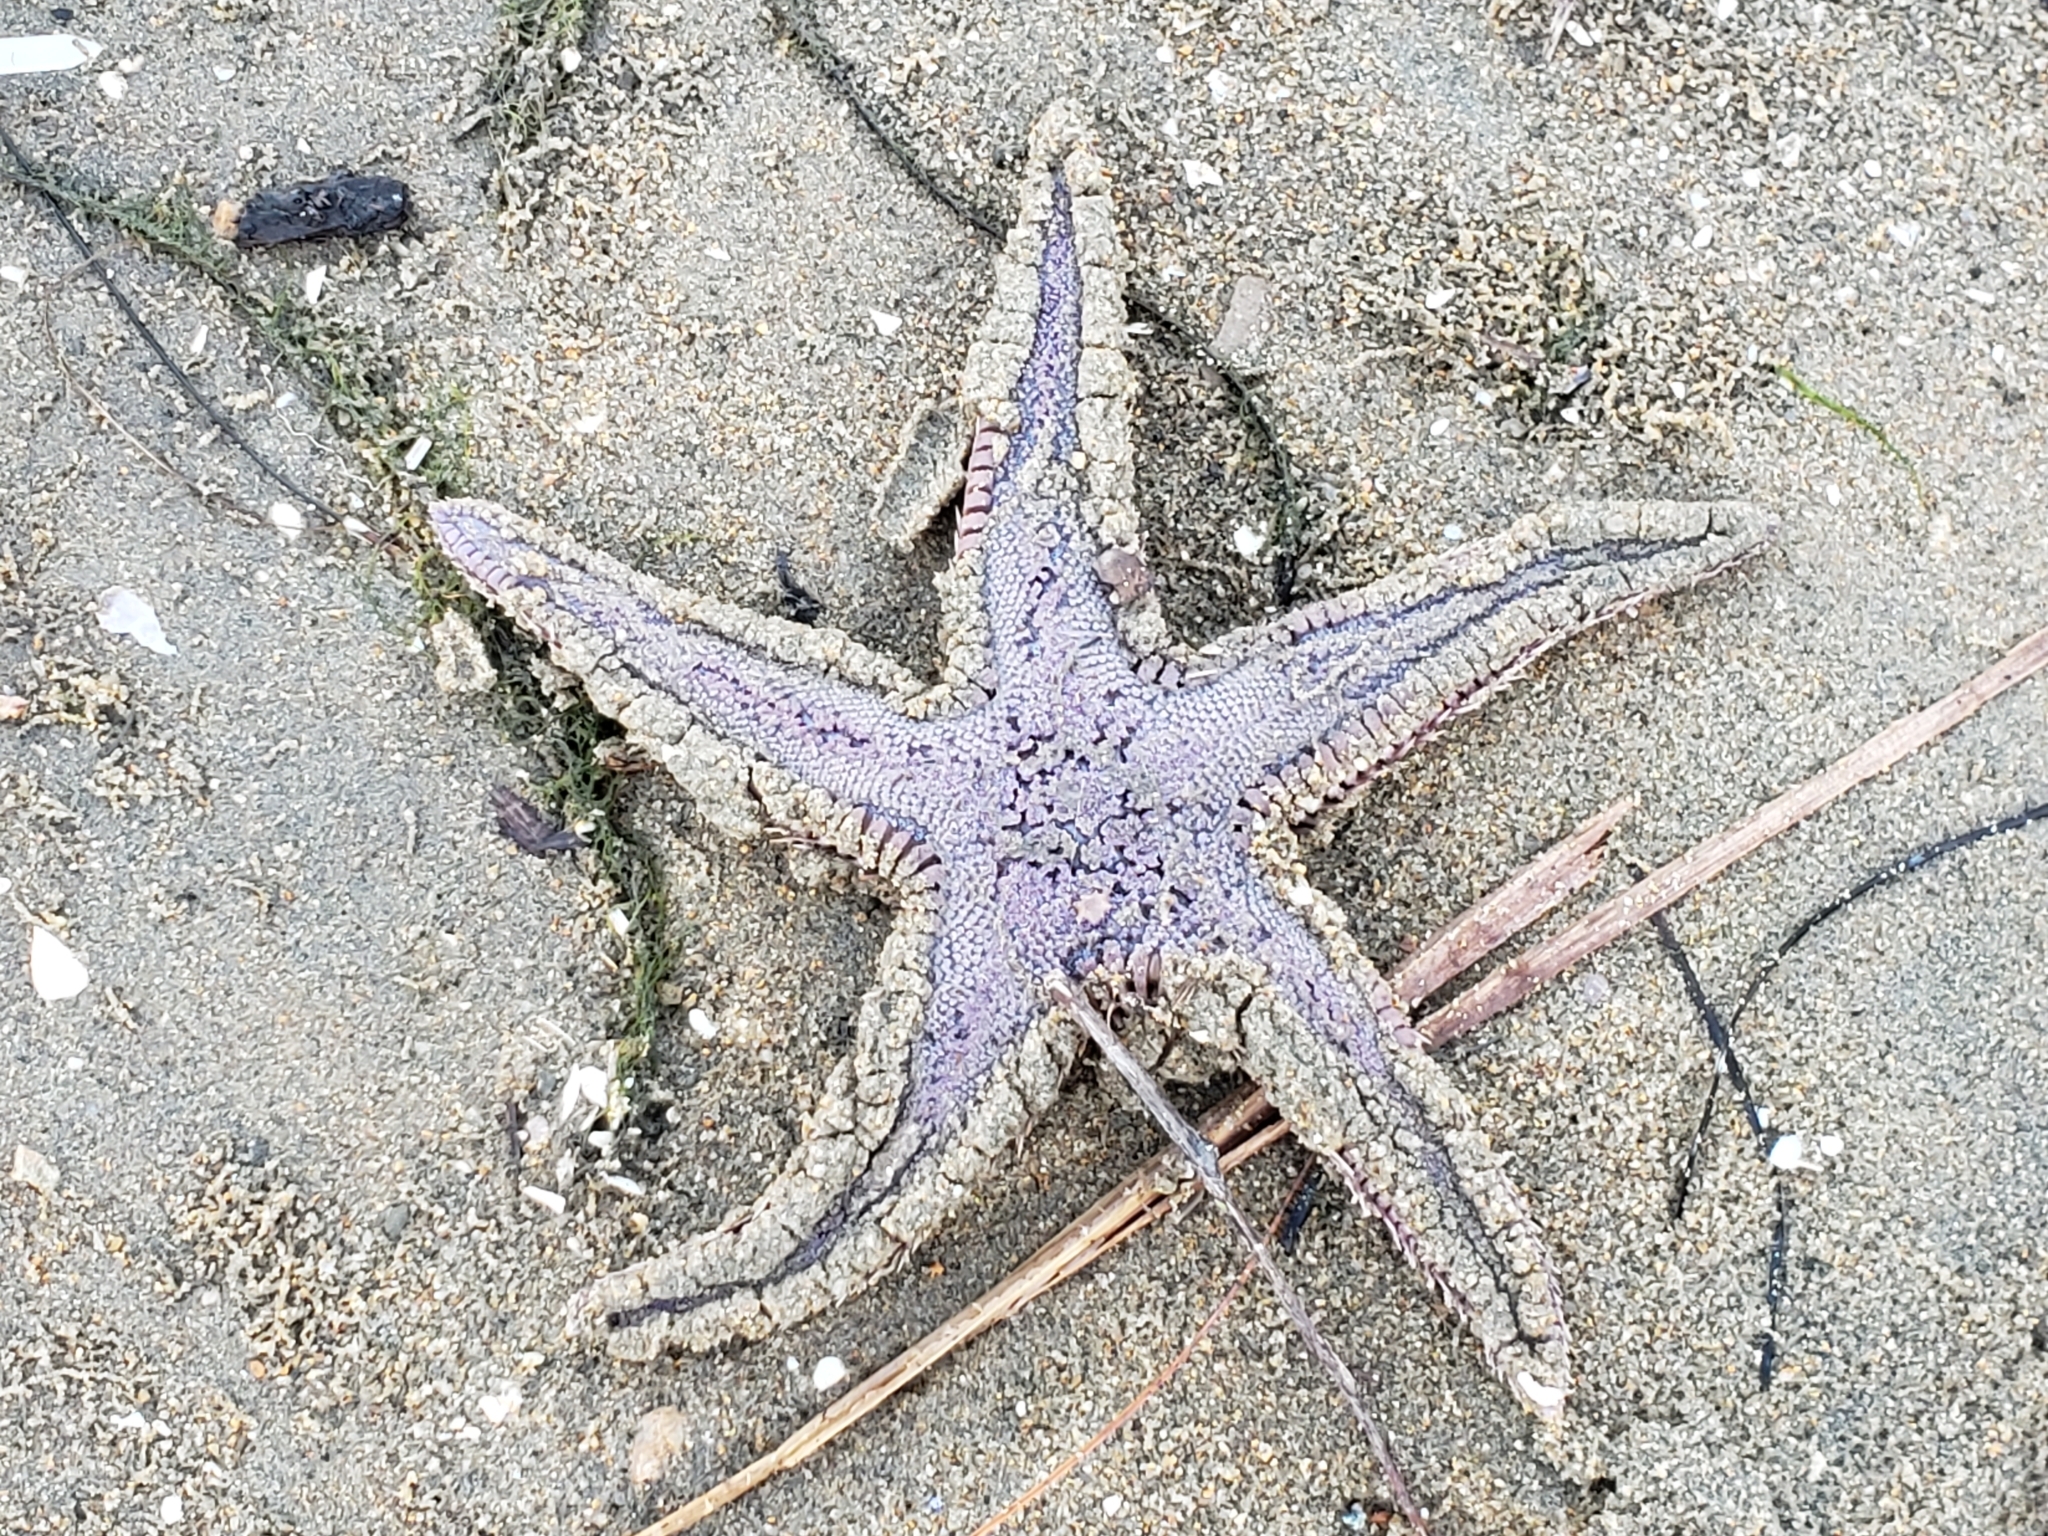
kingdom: Animalia
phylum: Echinodermata
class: Asteroidea
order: Paxillosida
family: Astropectinidae
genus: Astropecten
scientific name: Astropecten verrilli de
